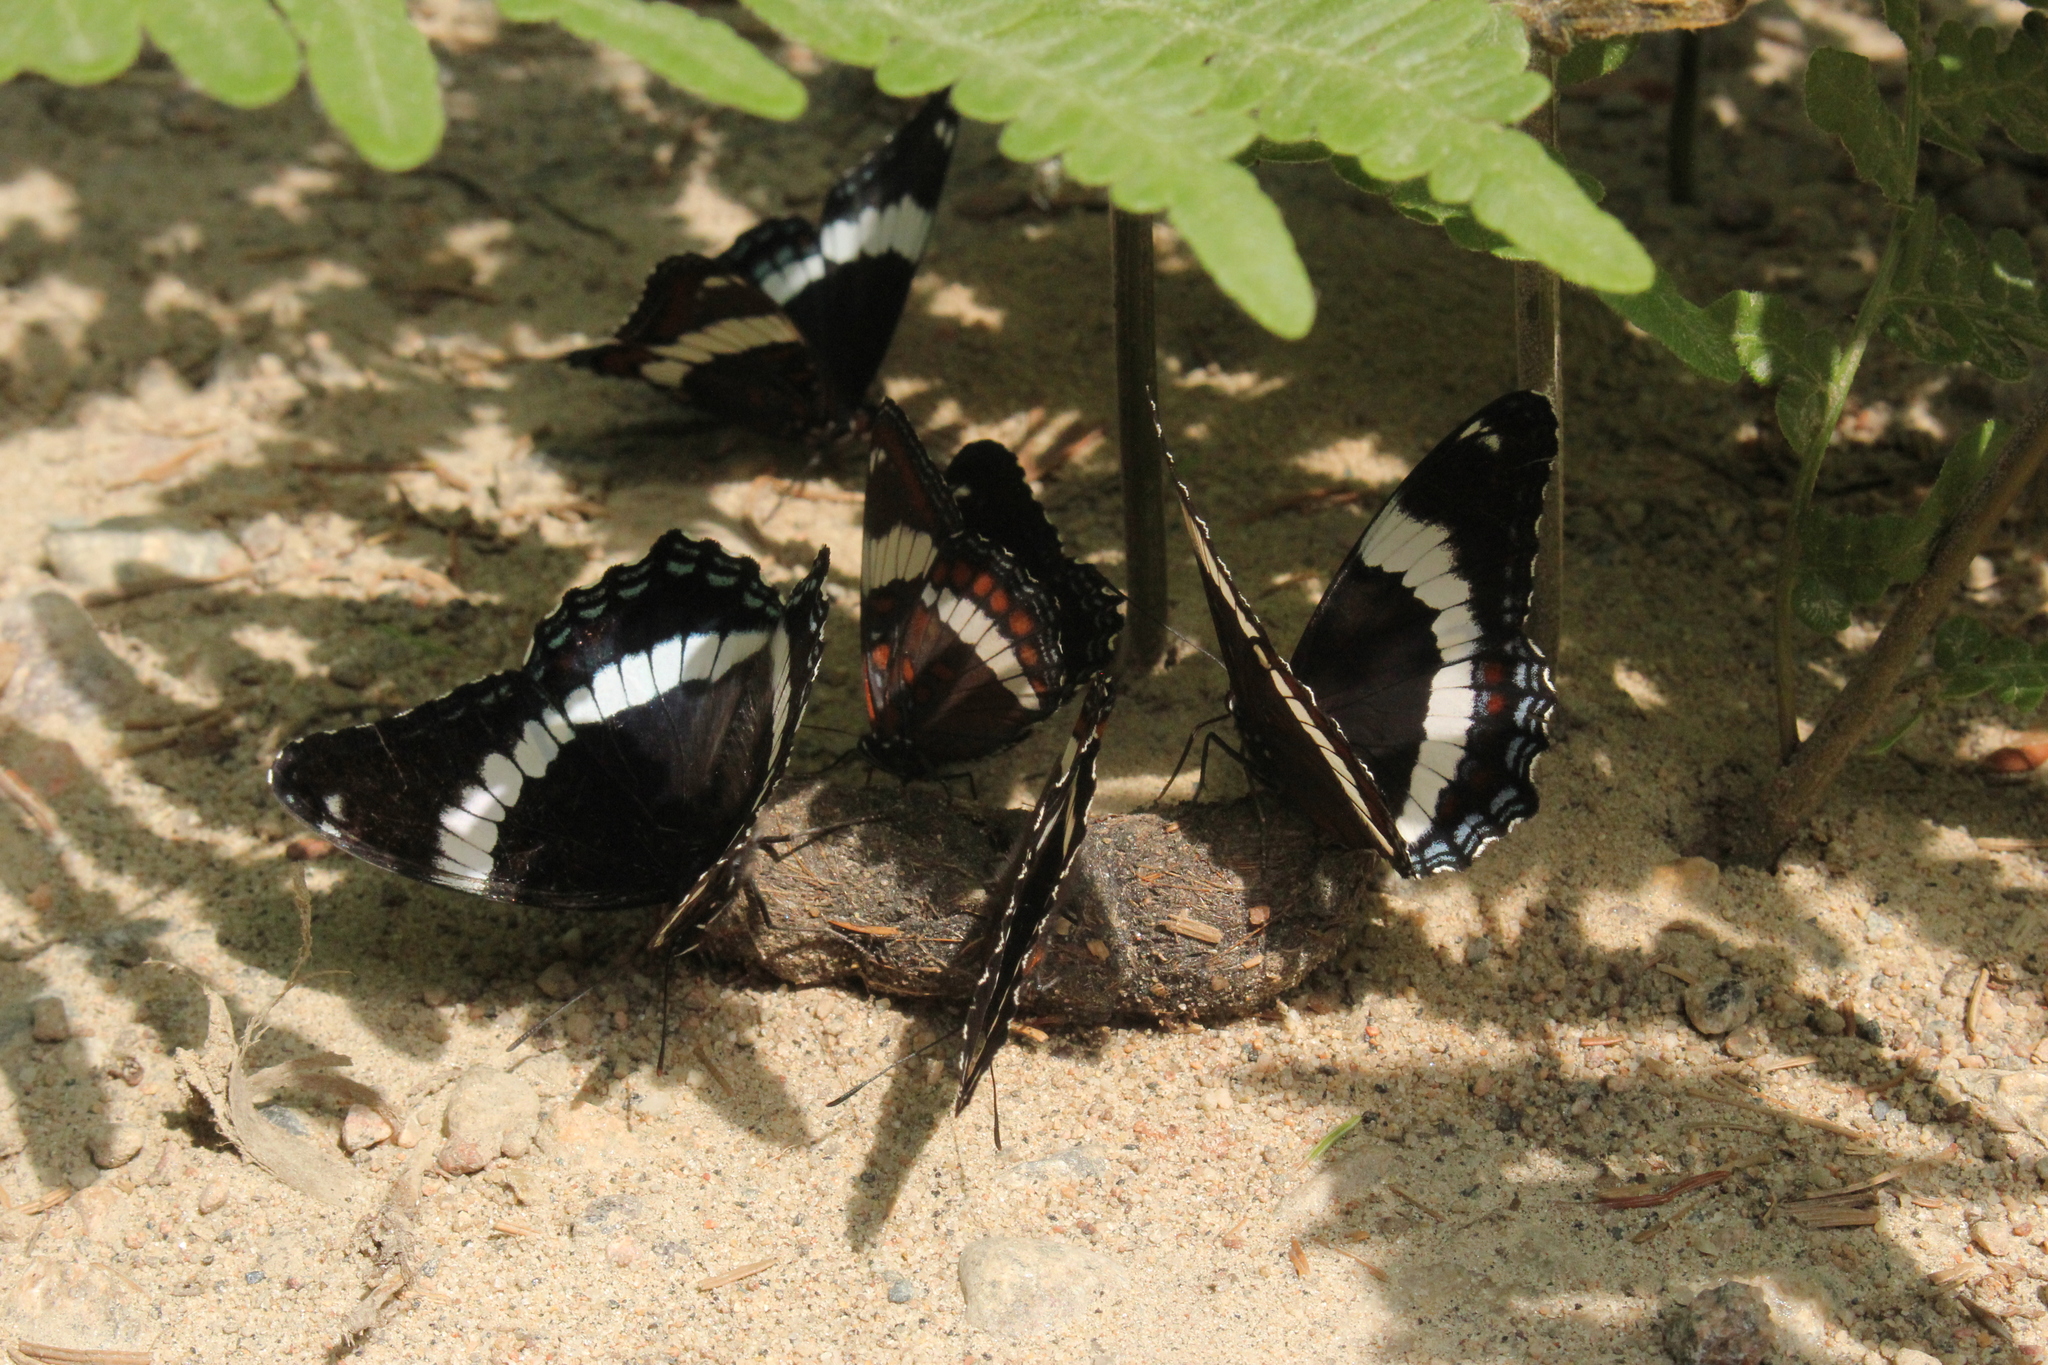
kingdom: Animalia
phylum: Chordata
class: Mammalia
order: Carnivora
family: Canidae
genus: Canis
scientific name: Canis lycaon
